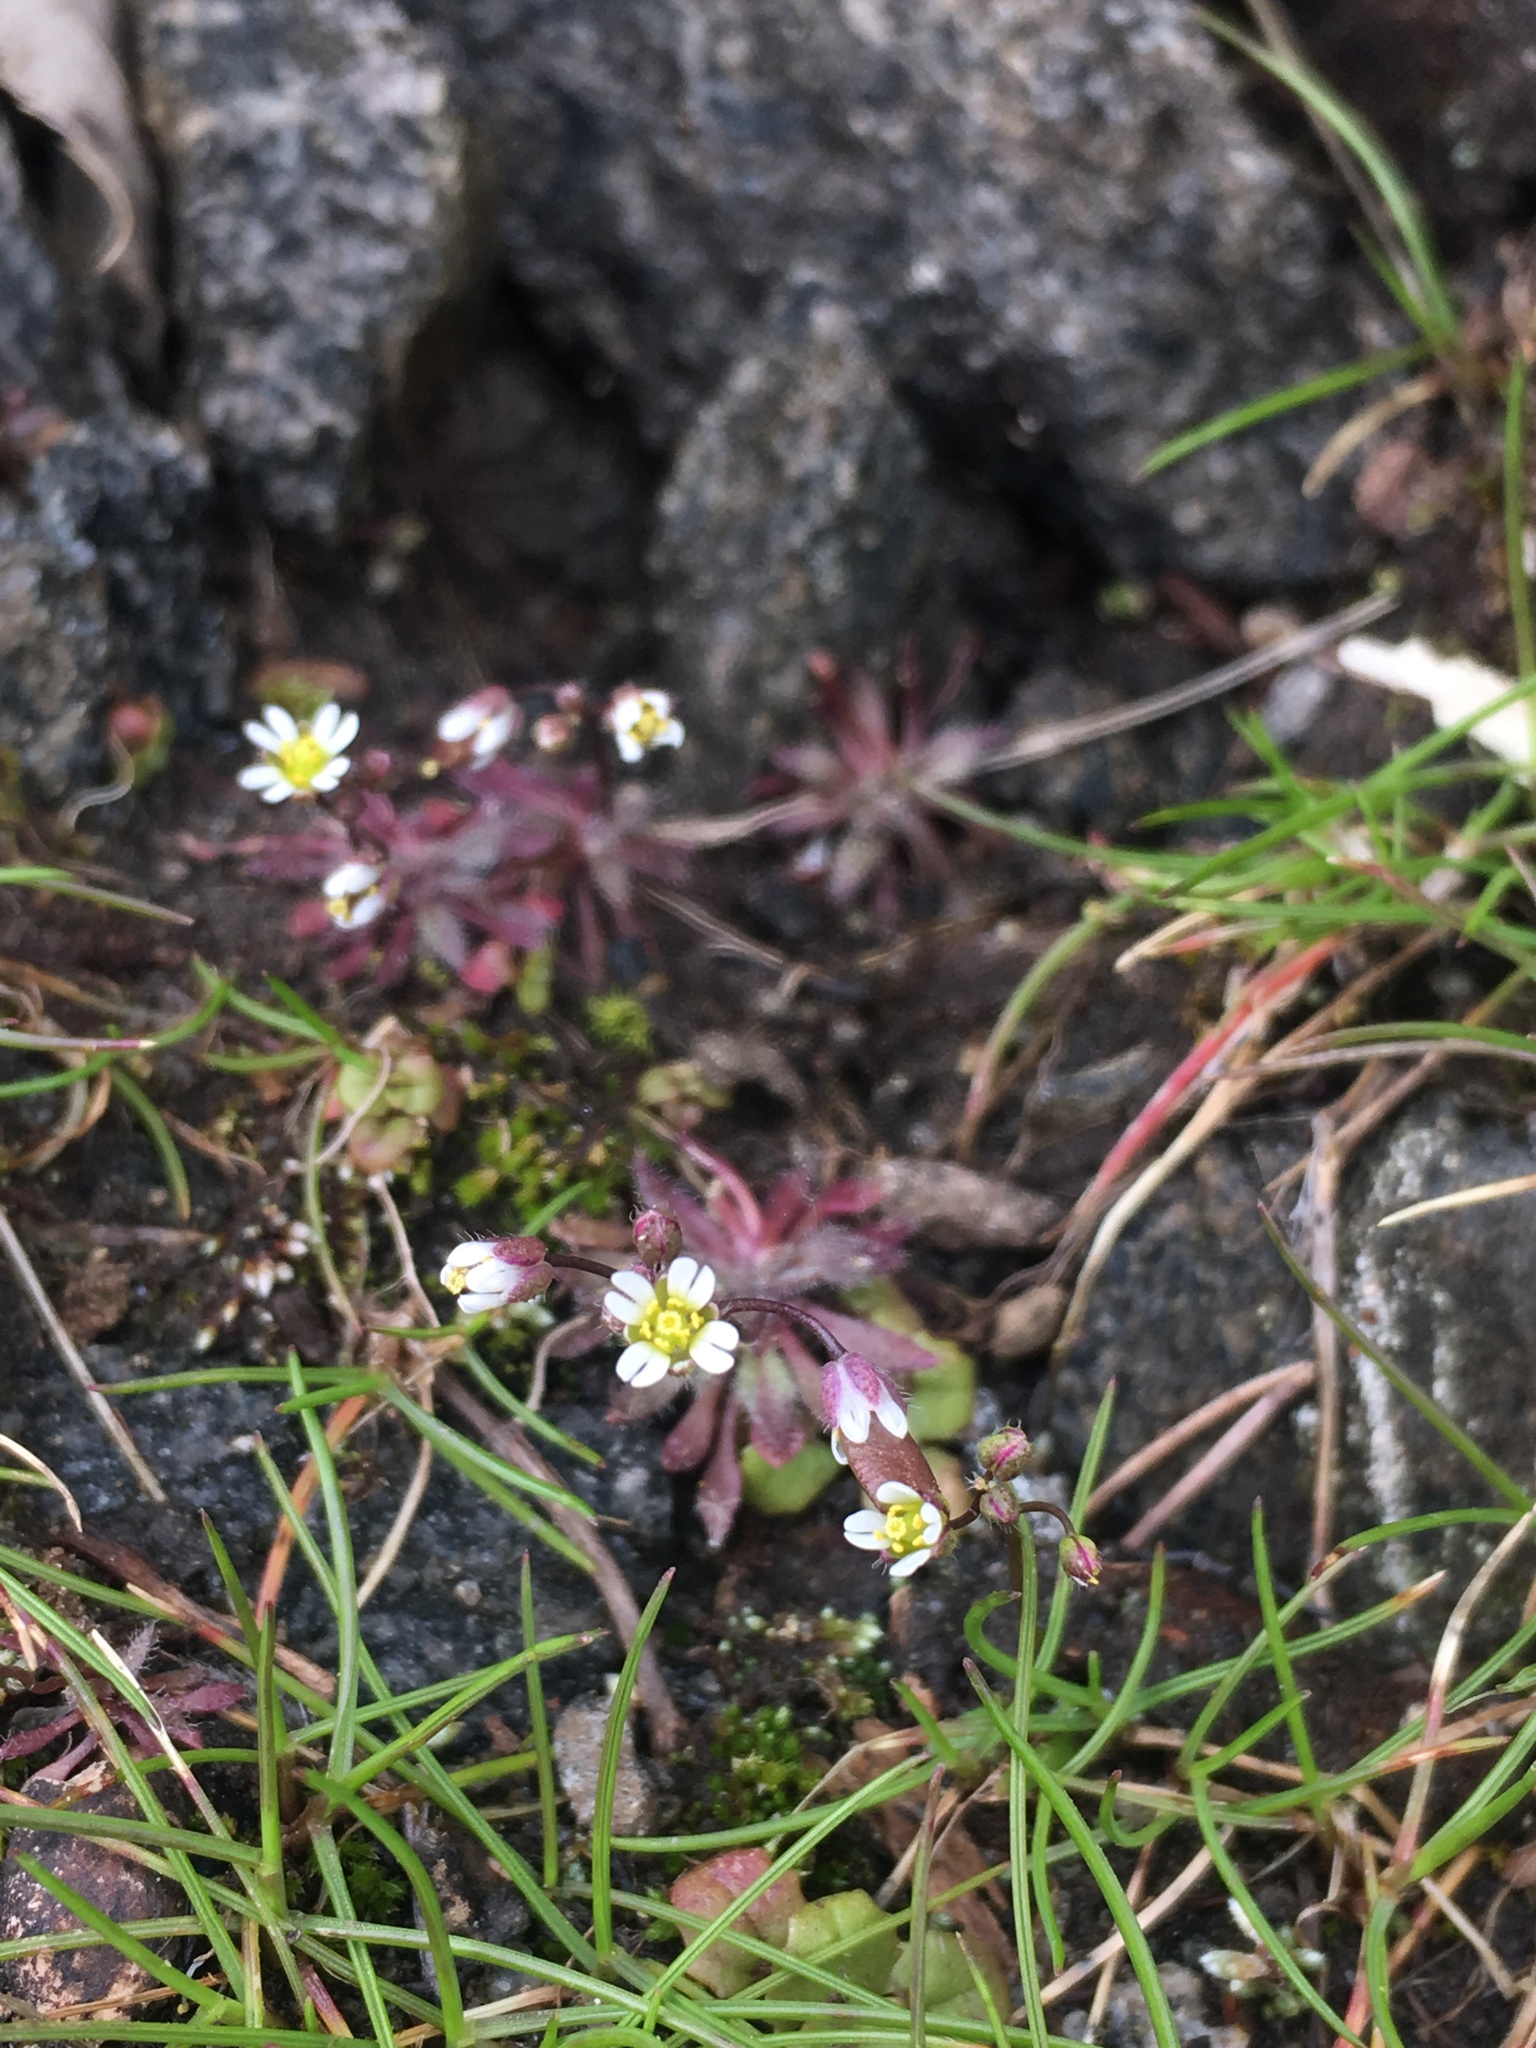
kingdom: Plantae
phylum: Tracheophyta
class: Magnoliopsida
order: Brassicales
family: Brassicaceae
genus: Draba
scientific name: Draba verna
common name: Spring draba
